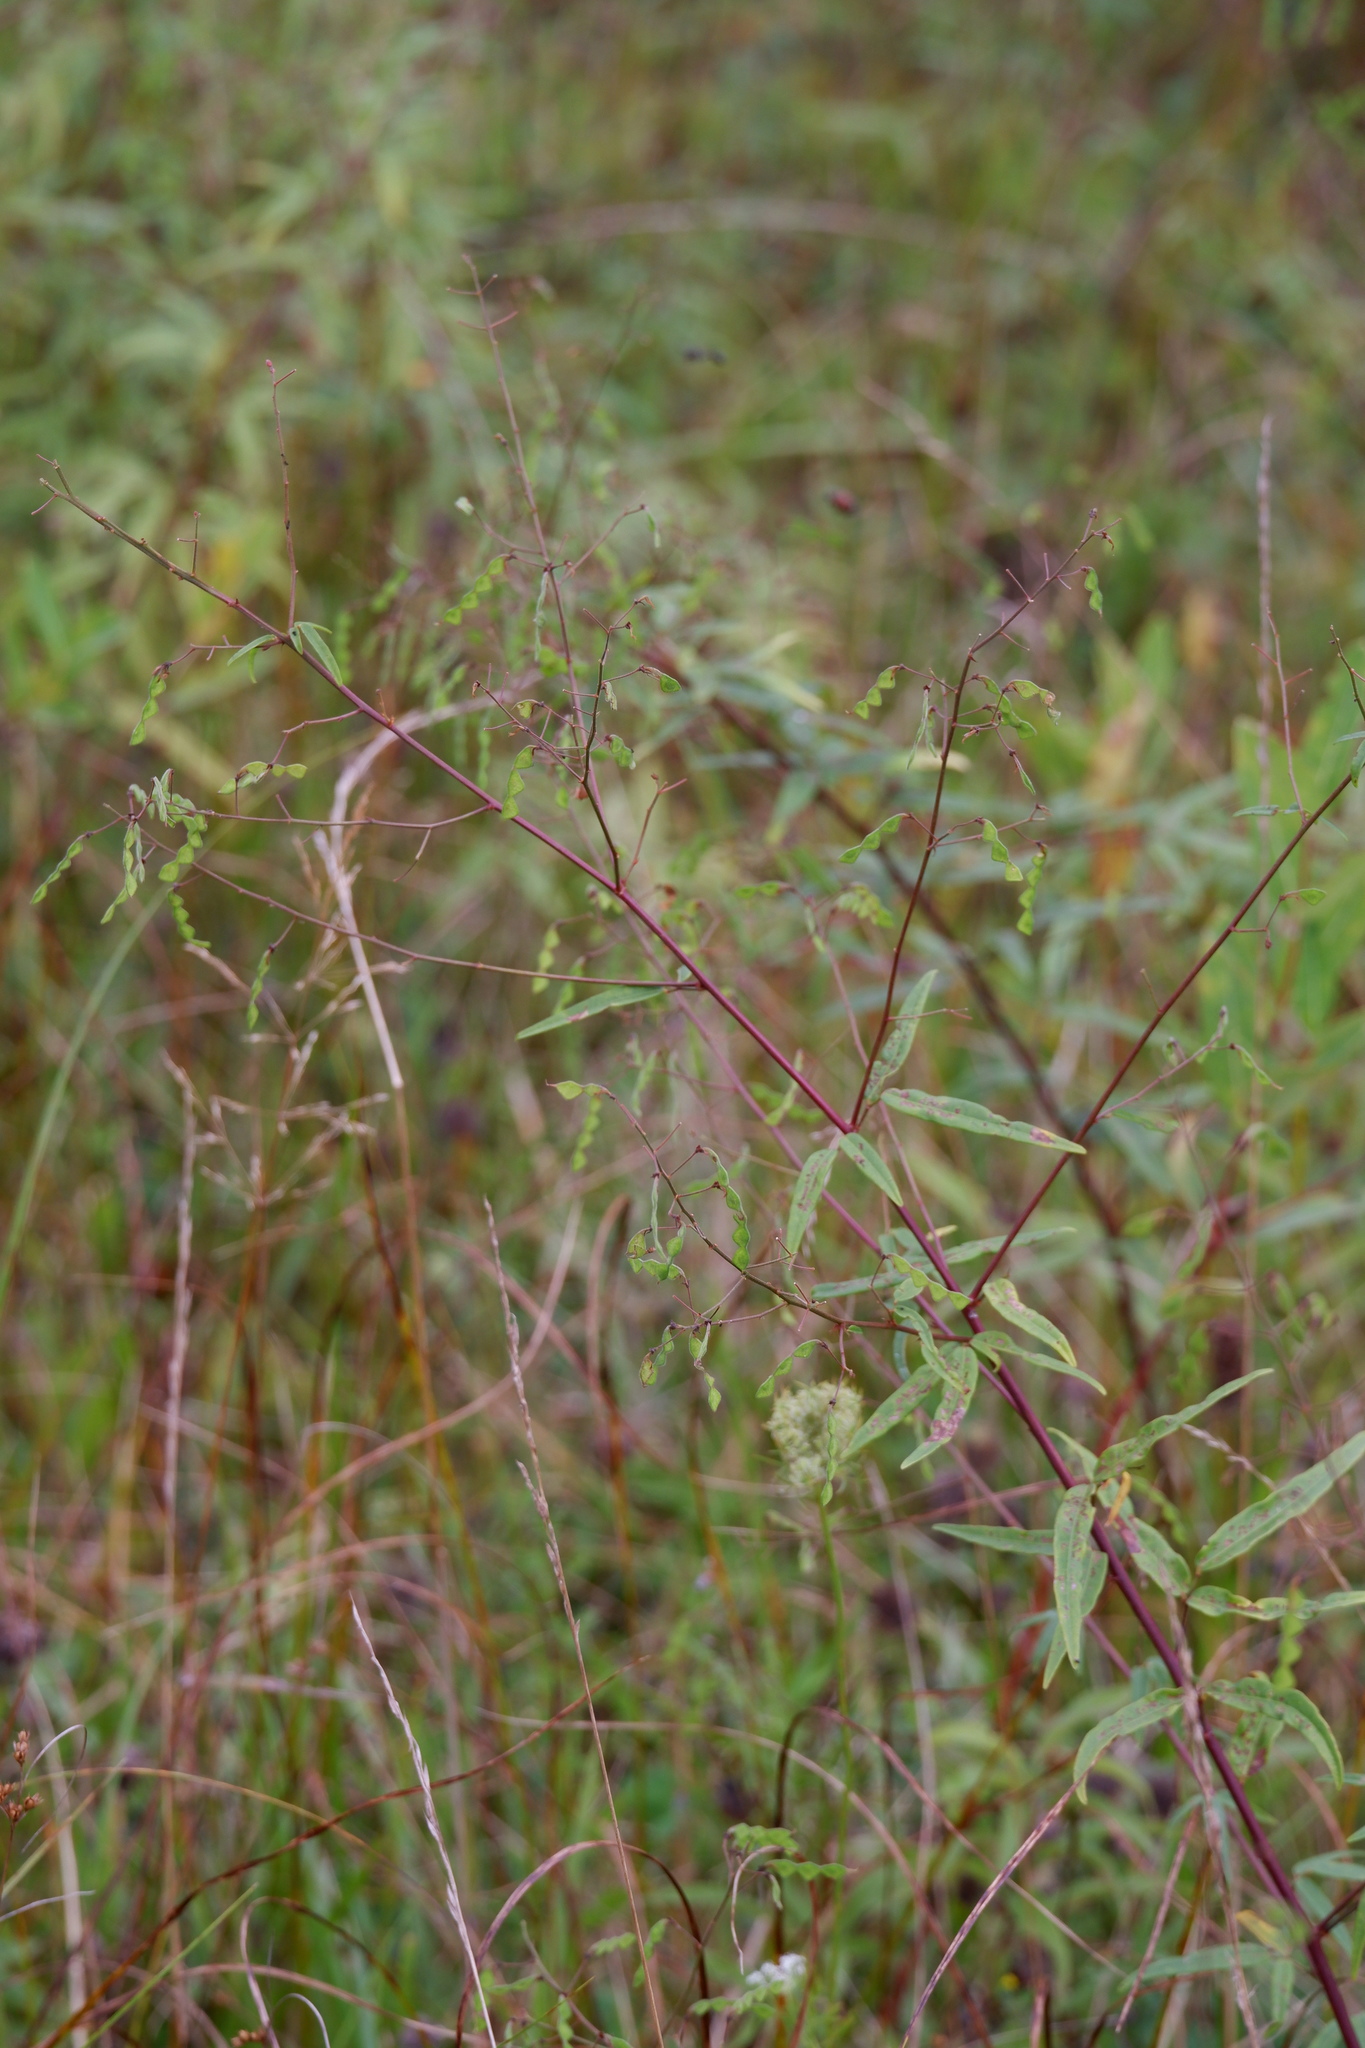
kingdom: Plantae
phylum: Tracheophyta
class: Magnoliopsida
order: Fabales
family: Fabaceae
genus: Desmodium
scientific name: Desmodium paniculatum
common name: Panicled tick-clover
